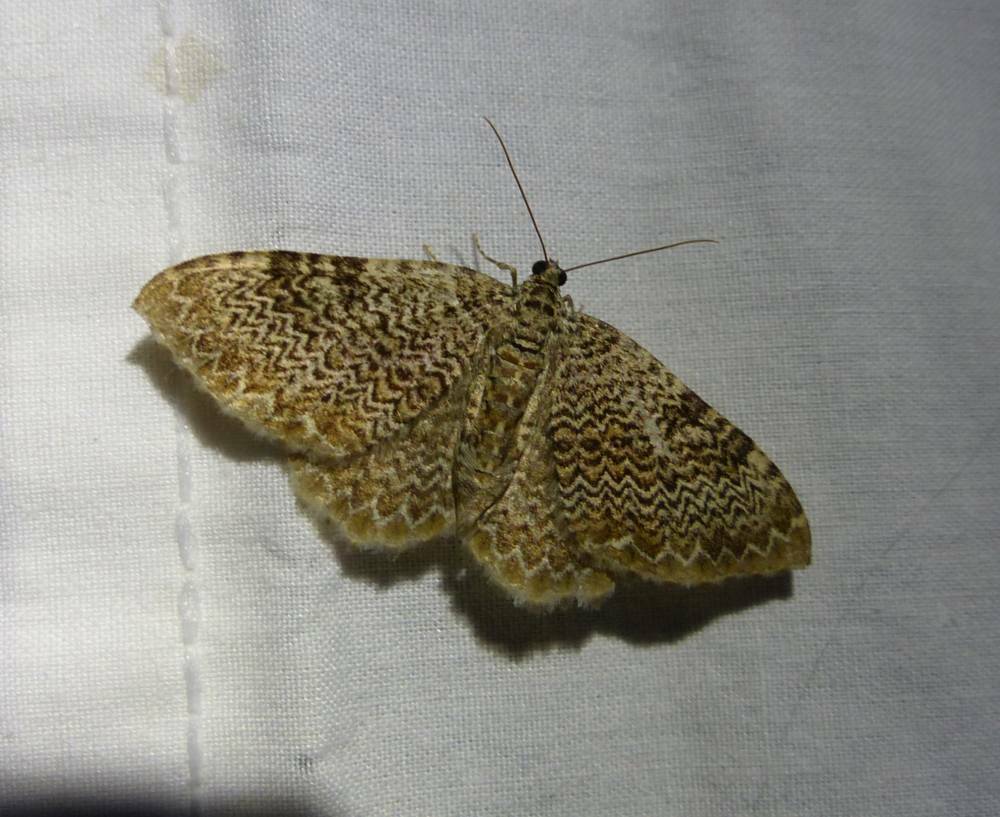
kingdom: Animalia
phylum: Arthropoda
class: Insecta
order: Lepidoptera
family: Geometridae
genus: Rheumaptera
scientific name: Rheumaptera
